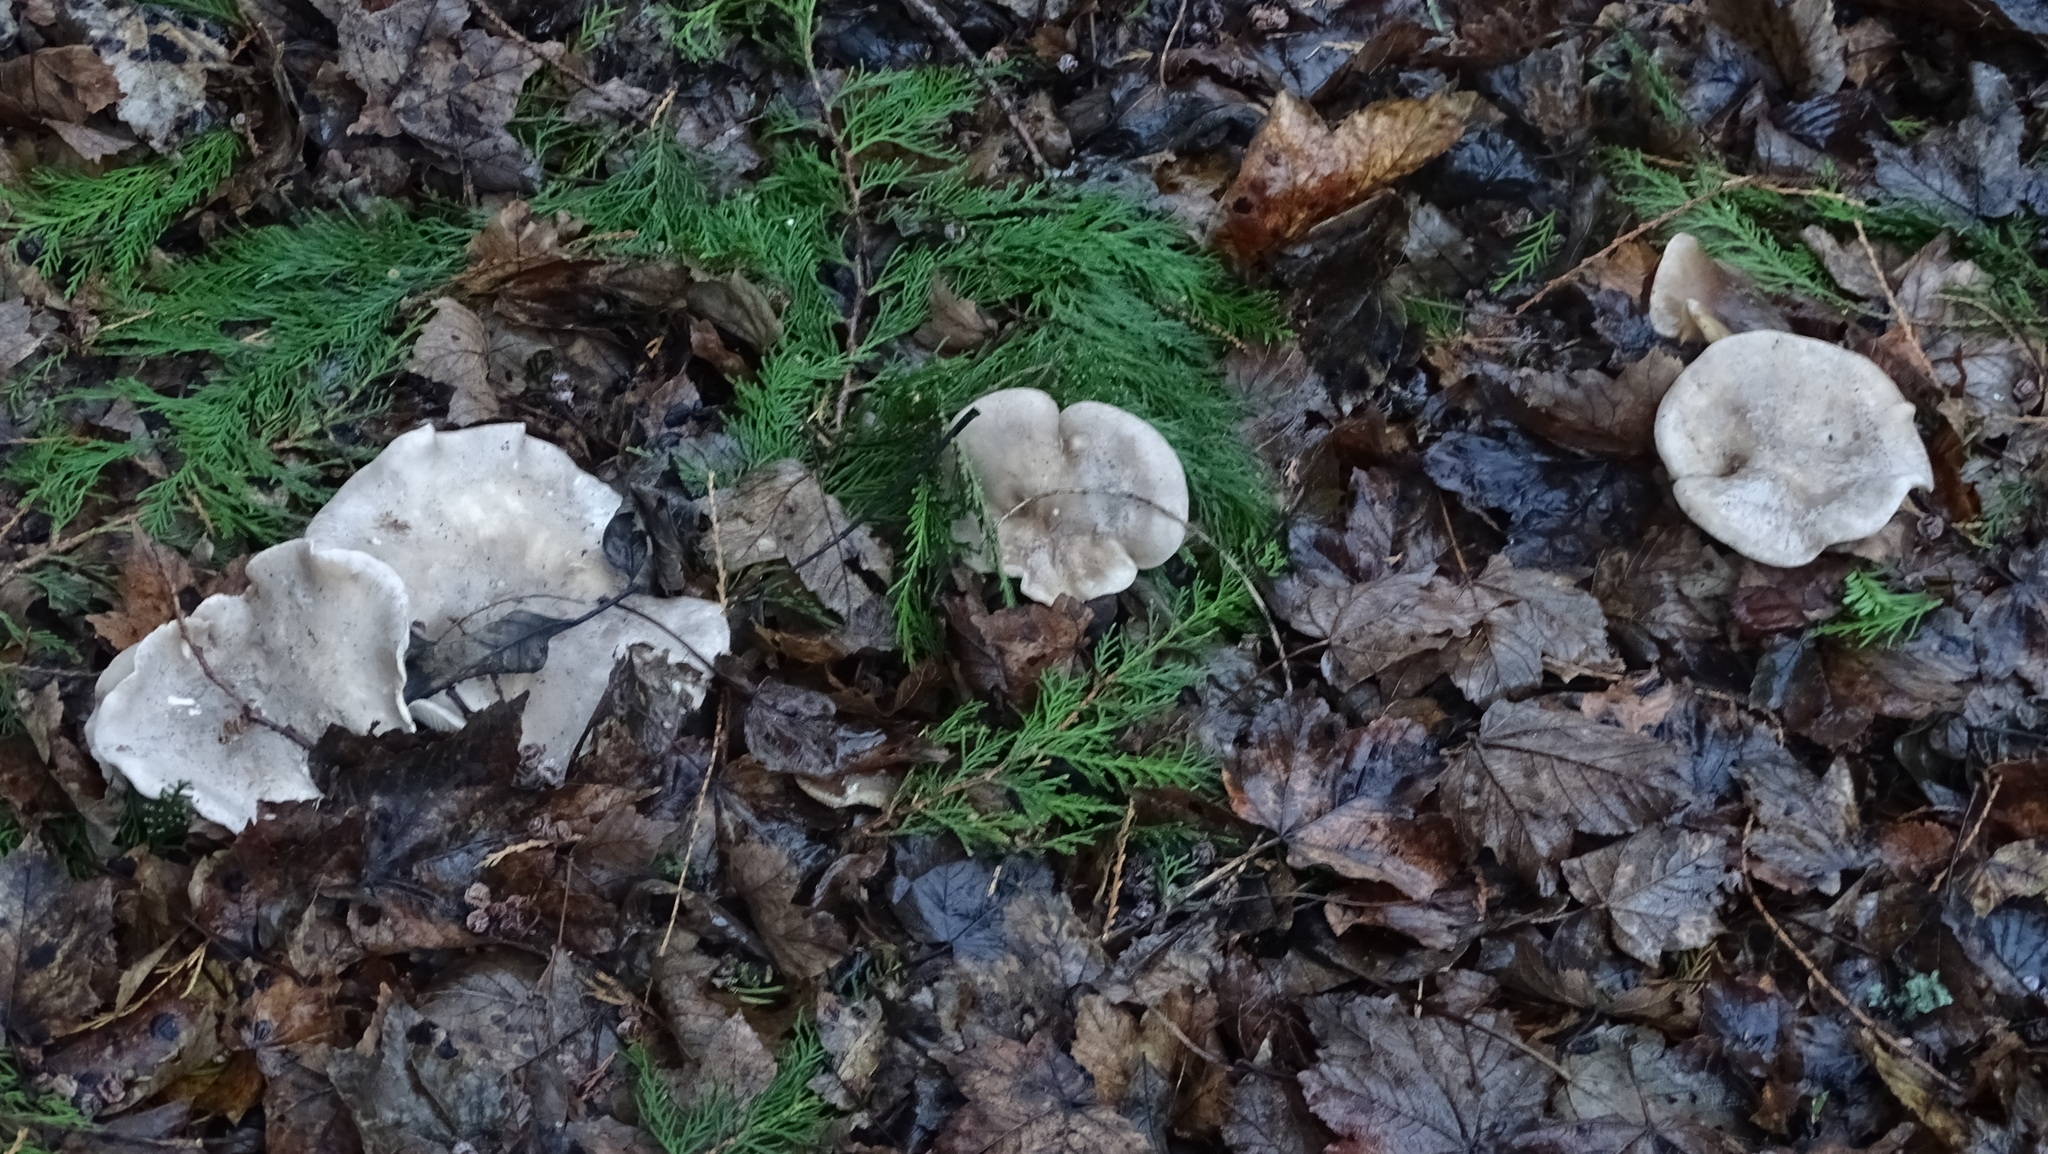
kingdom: Fungi
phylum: Basidiomycota
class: Agaricomycetes
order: Agaricales
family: Tricholomataceae
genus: Clitocybe
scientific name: Clitocybe nebularis
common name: Clouded agaric
